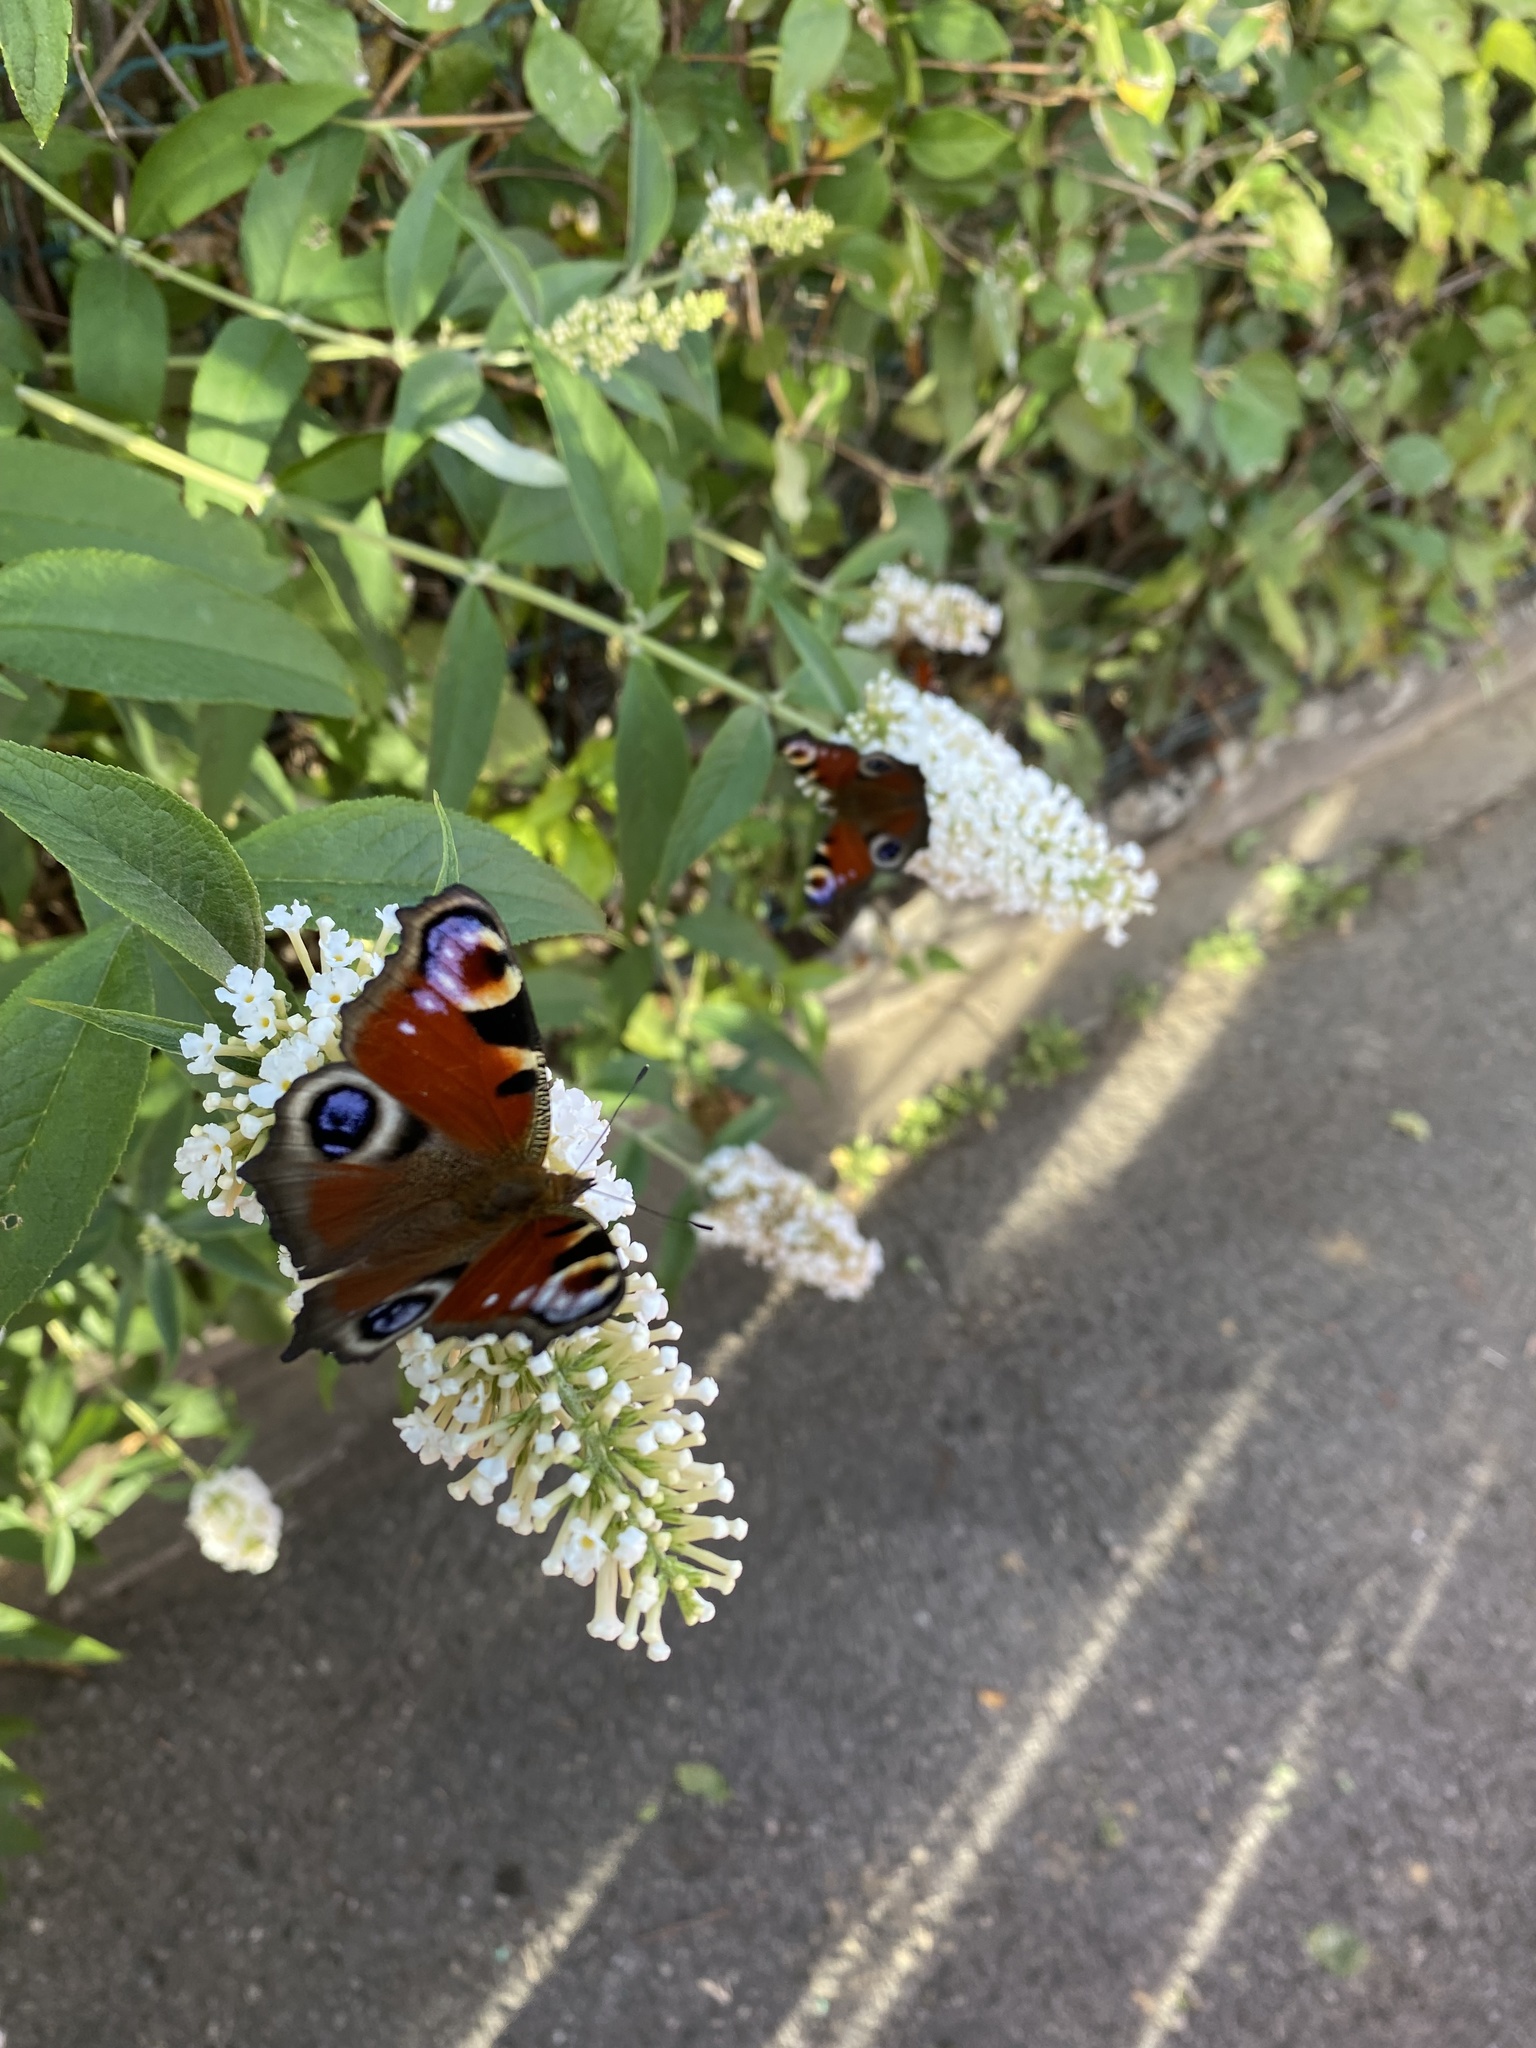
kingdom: Animalia
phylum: Arthropoda
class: Insecta
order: Lepidoptera
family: Nymphalidae
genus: Aglais
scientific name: Aglais io
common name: Peacock
